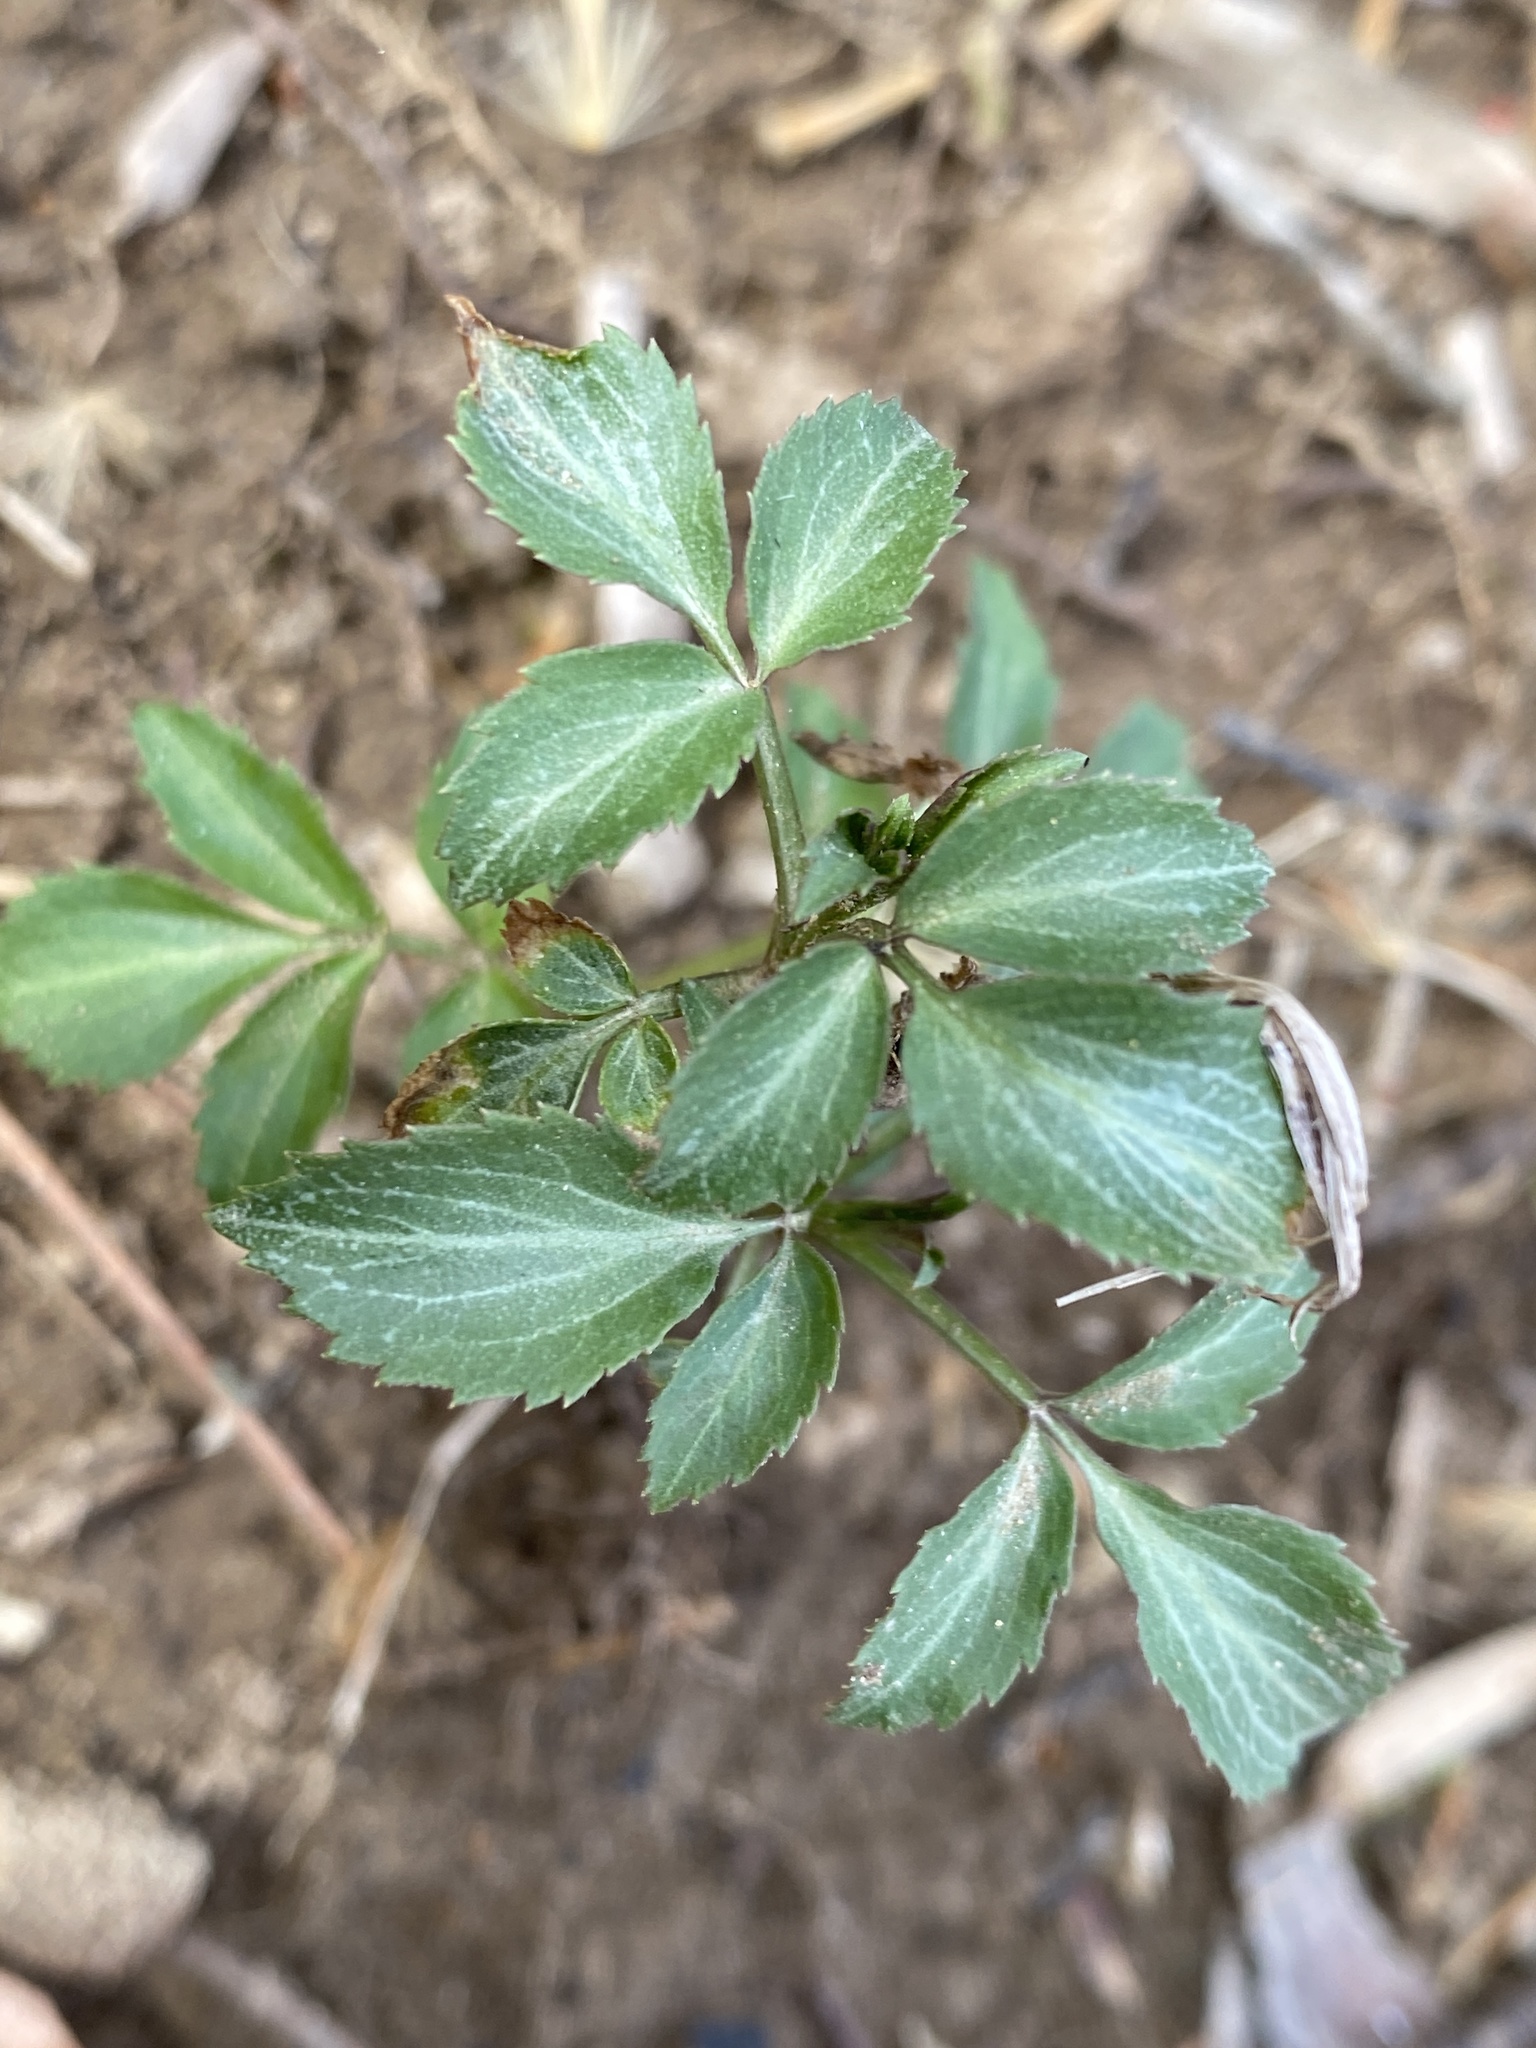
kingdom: Plantae
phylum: Tracheophyta
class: Magnoliopsida
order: Dipsacales
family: Viburnaceae
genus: Sambucus
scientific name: Sambucus canadensis
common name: American elder
